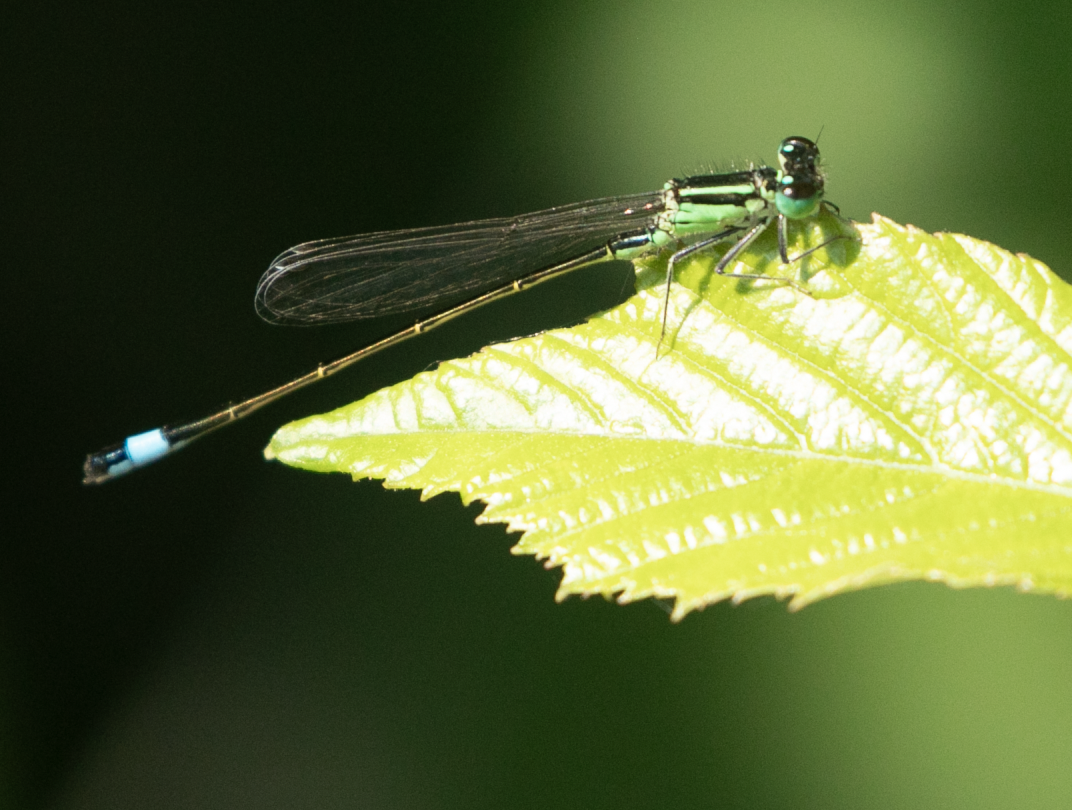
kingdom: Animalia
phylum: Arthropoda
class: Insecta
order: Odonata
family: Coenagrionidae
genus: Ischnura
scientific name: Ischnura elegans
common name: Blue-tailed damselfly
